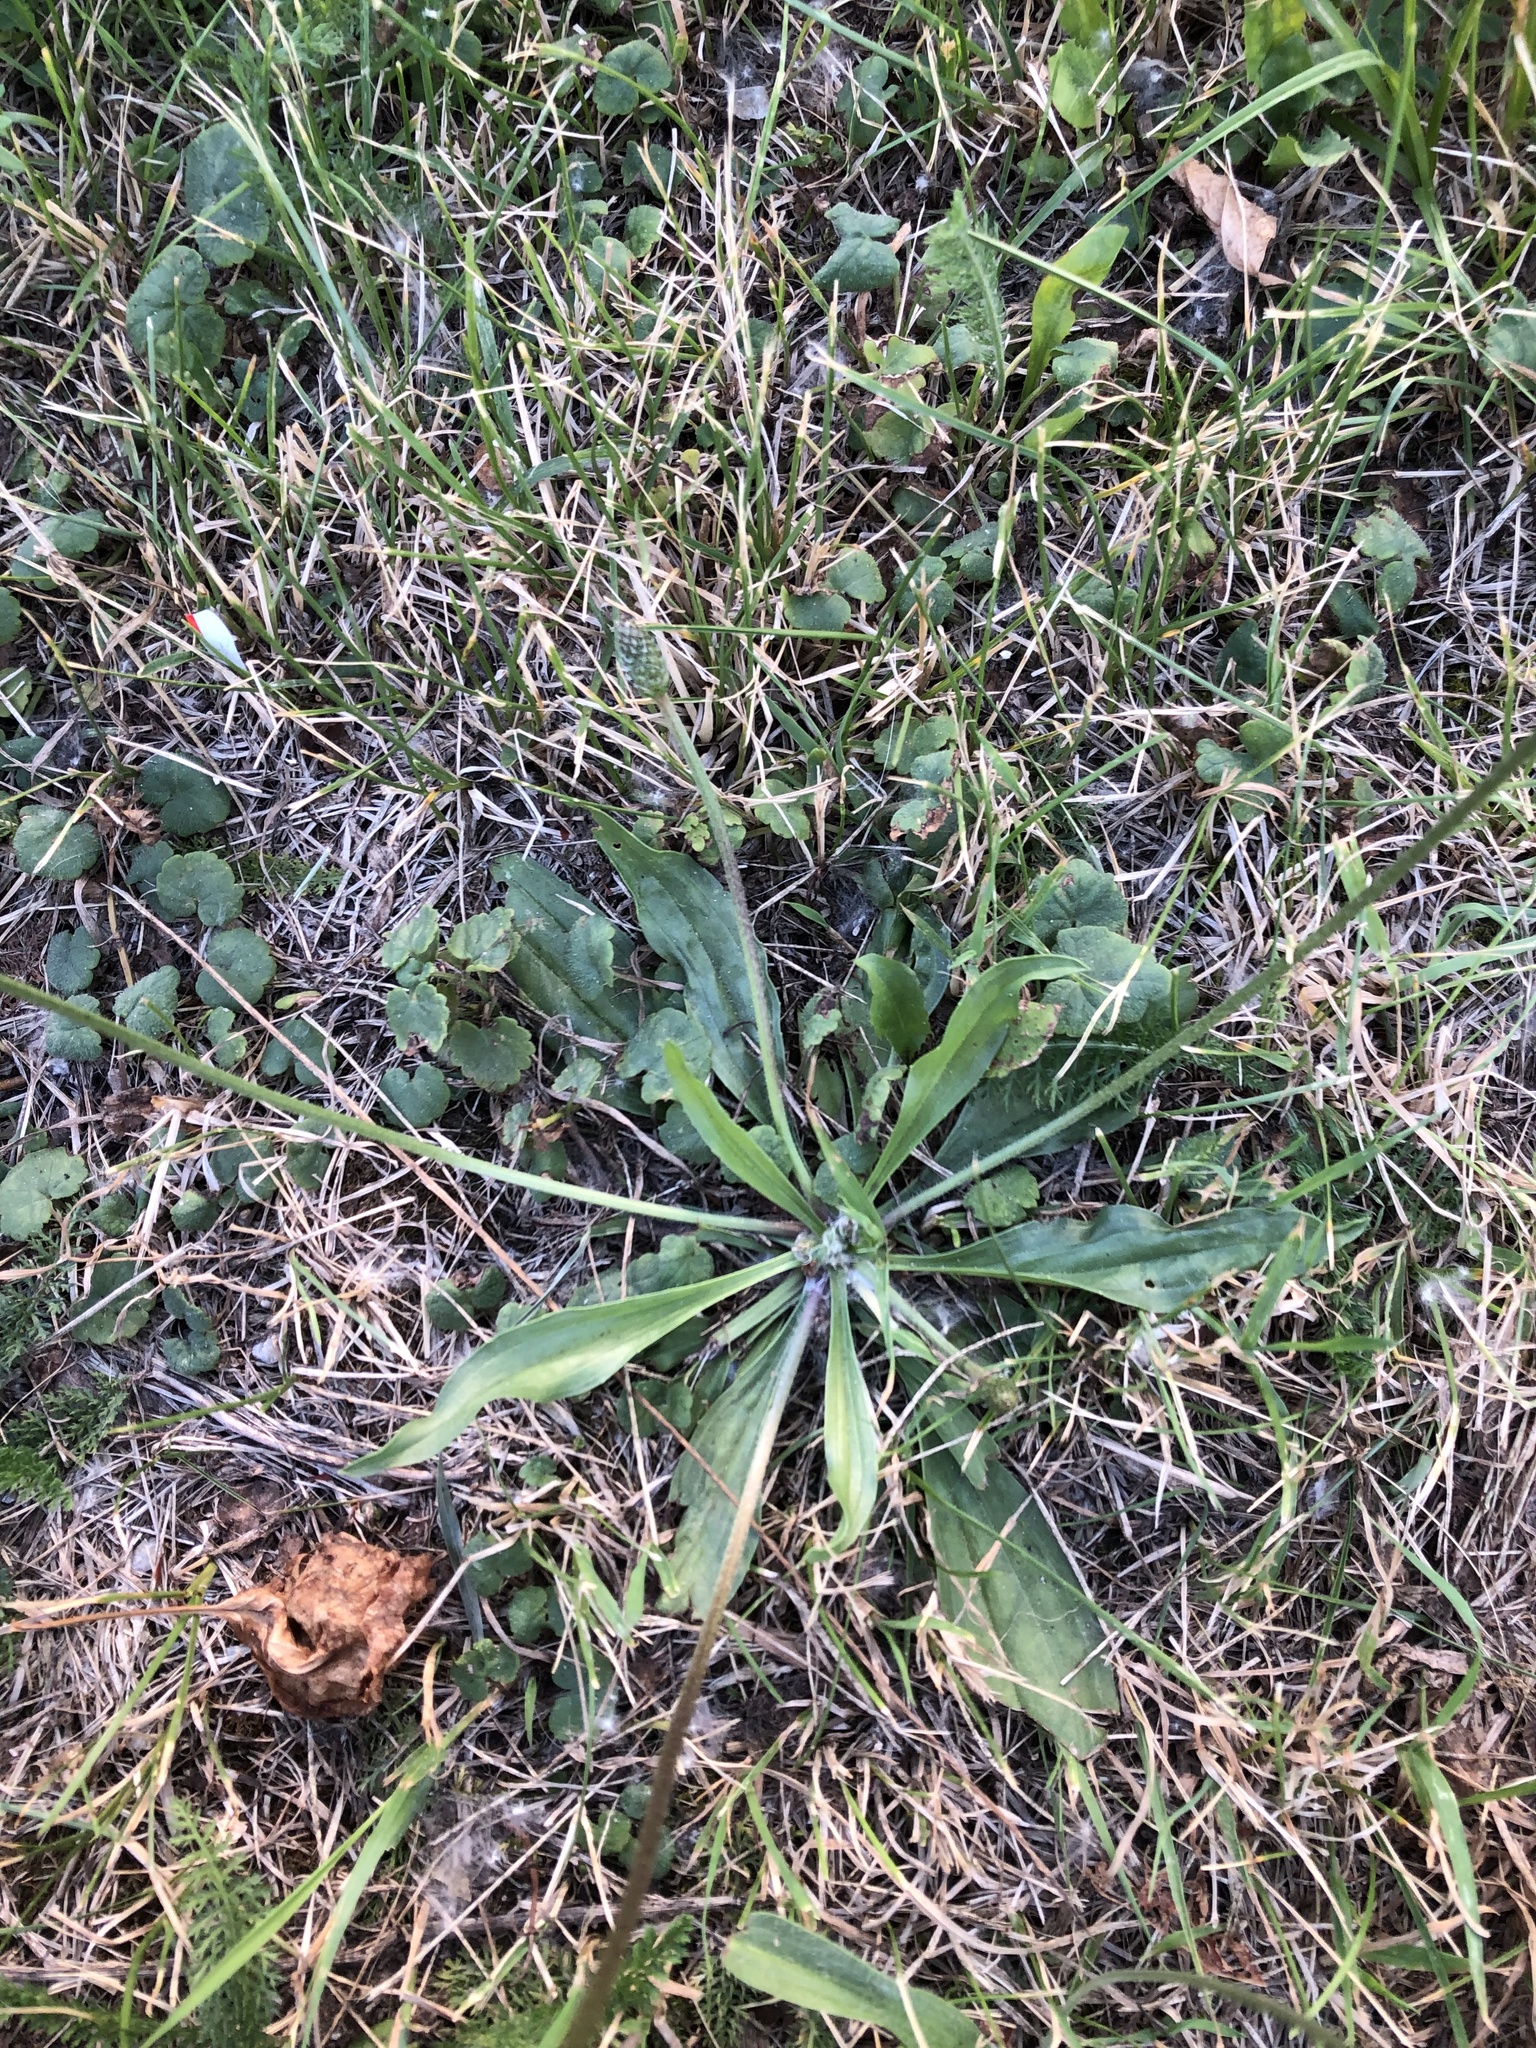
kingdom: Plantae
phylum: Tracheophyta
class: Magnoliopsida
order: Lamiales
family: Plantaginaceae
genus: Plantago
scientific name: Plantago lanceolata
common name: Ribwort plantain
